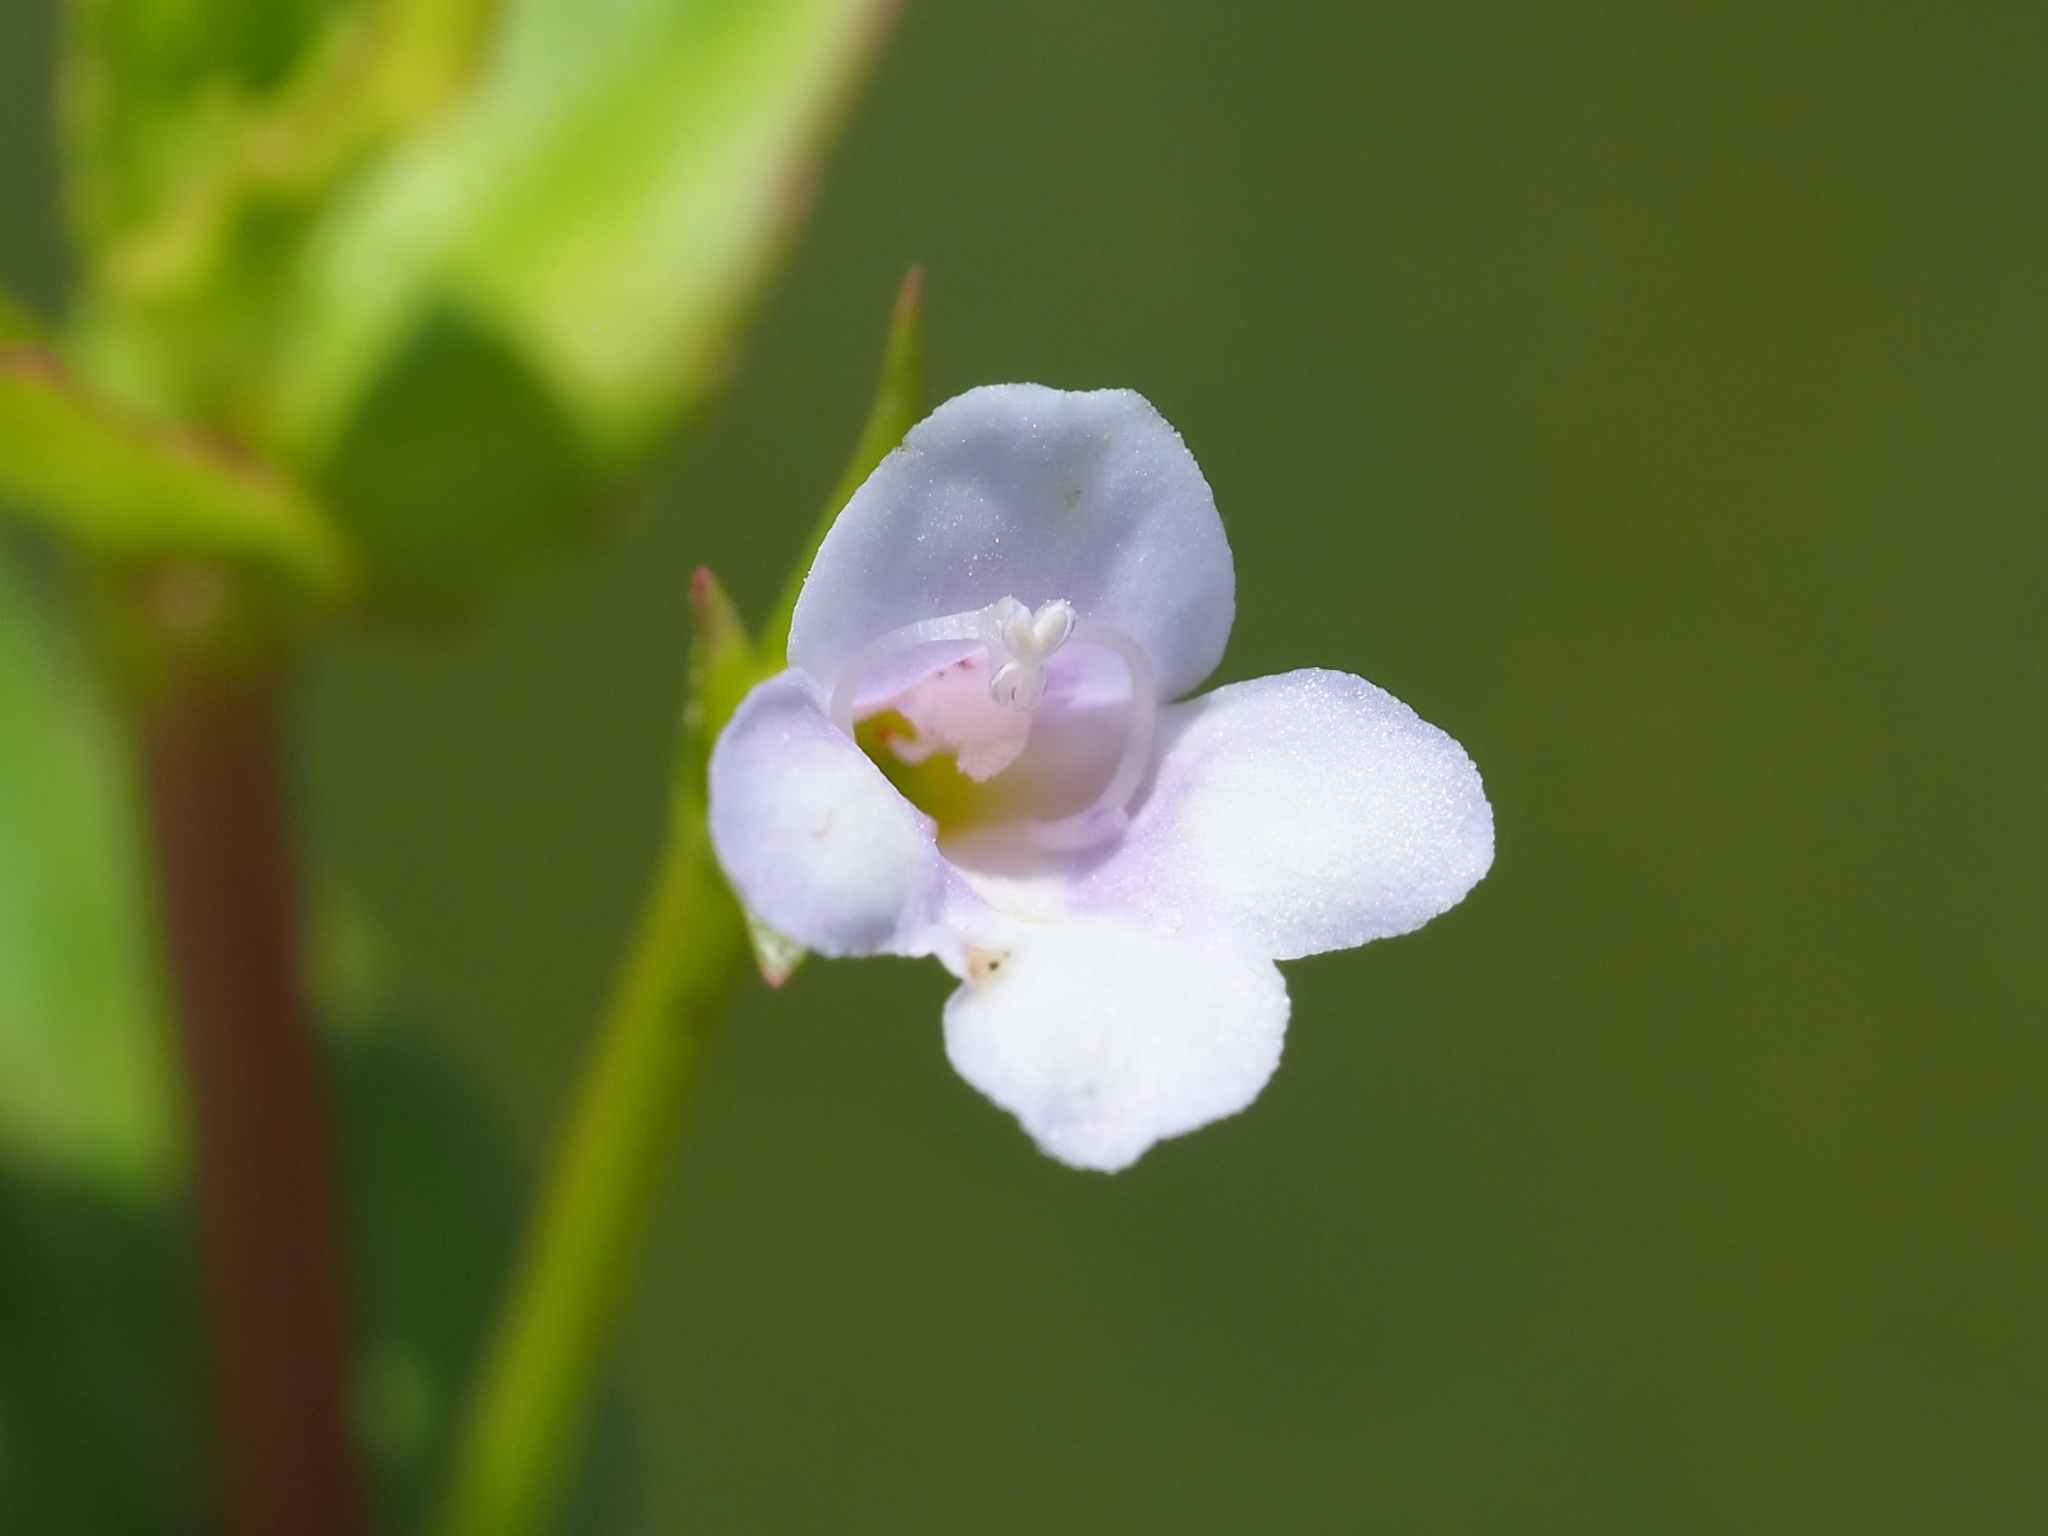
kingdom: Plantae
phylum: Tracheophyta
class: Magnoliopsida
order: Lamiales
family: Linderniaceae
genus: Torenia
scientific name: Torenia anagallis
